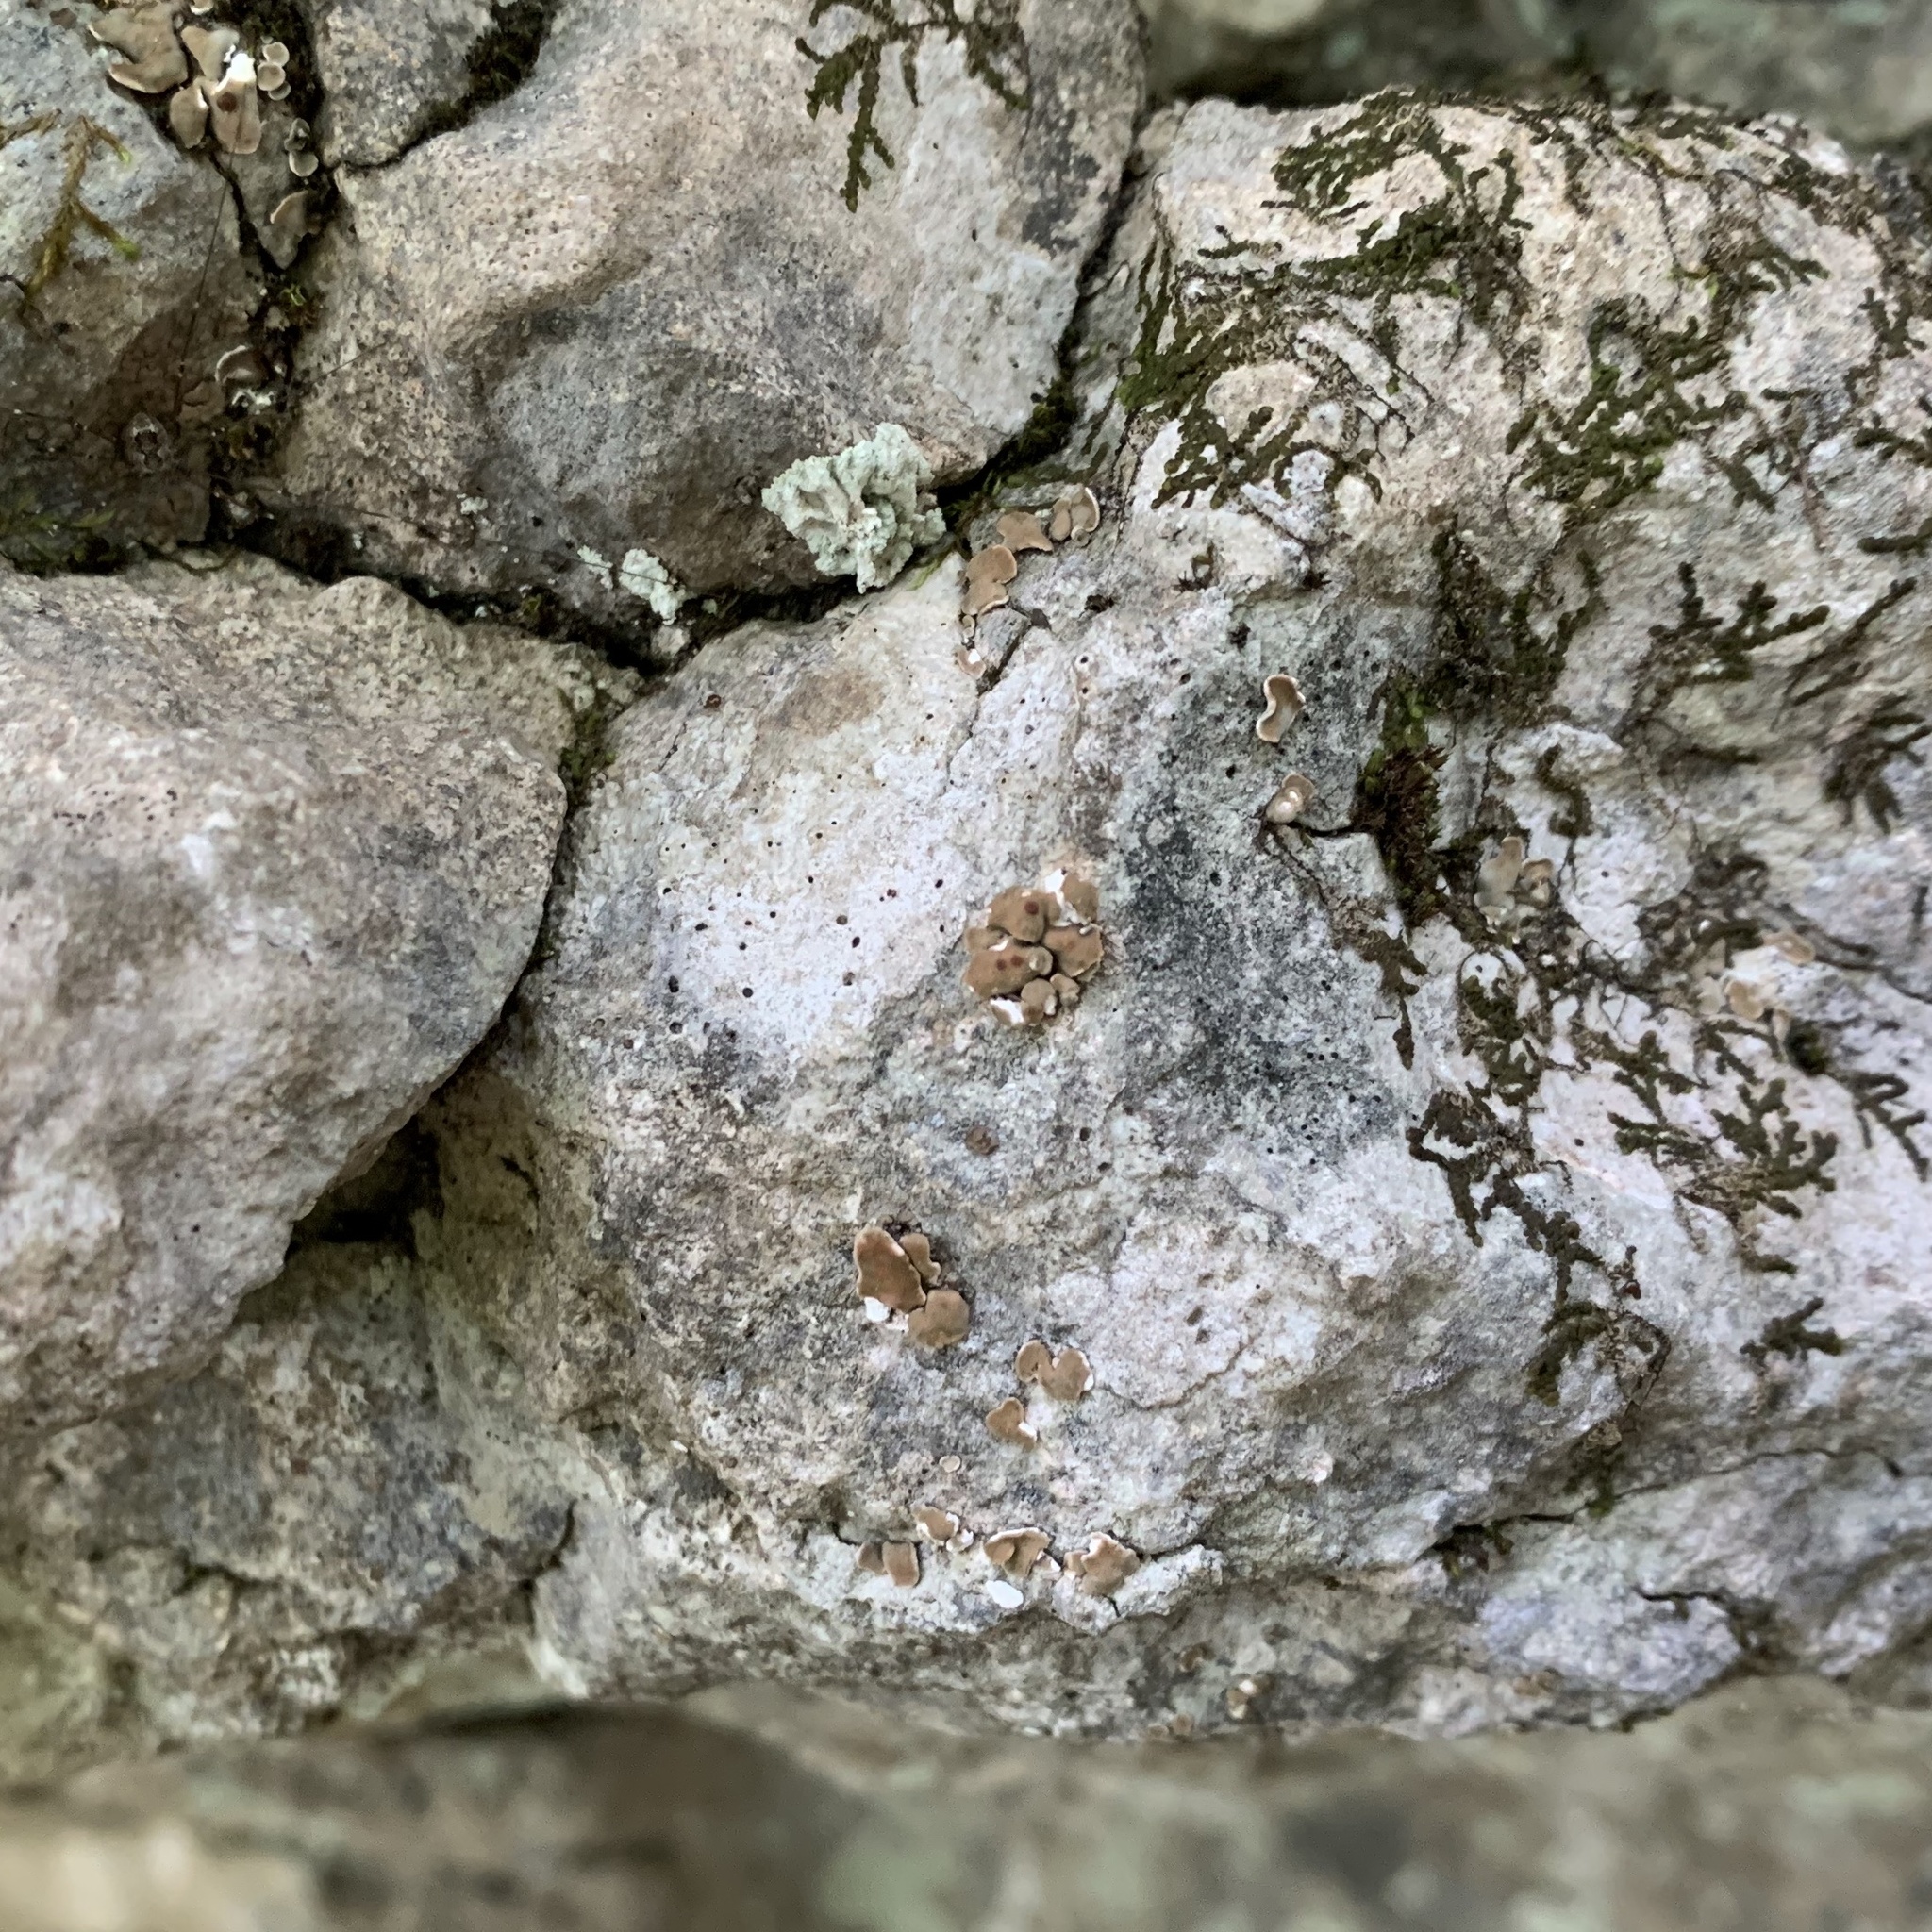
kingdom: Fungi
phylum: Ascomycota
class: Lecanoromycetes
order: Lecanorales
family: Psoraceae
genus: Psora
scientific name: Psora pseudorussellii
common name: Bordered scale lichen
